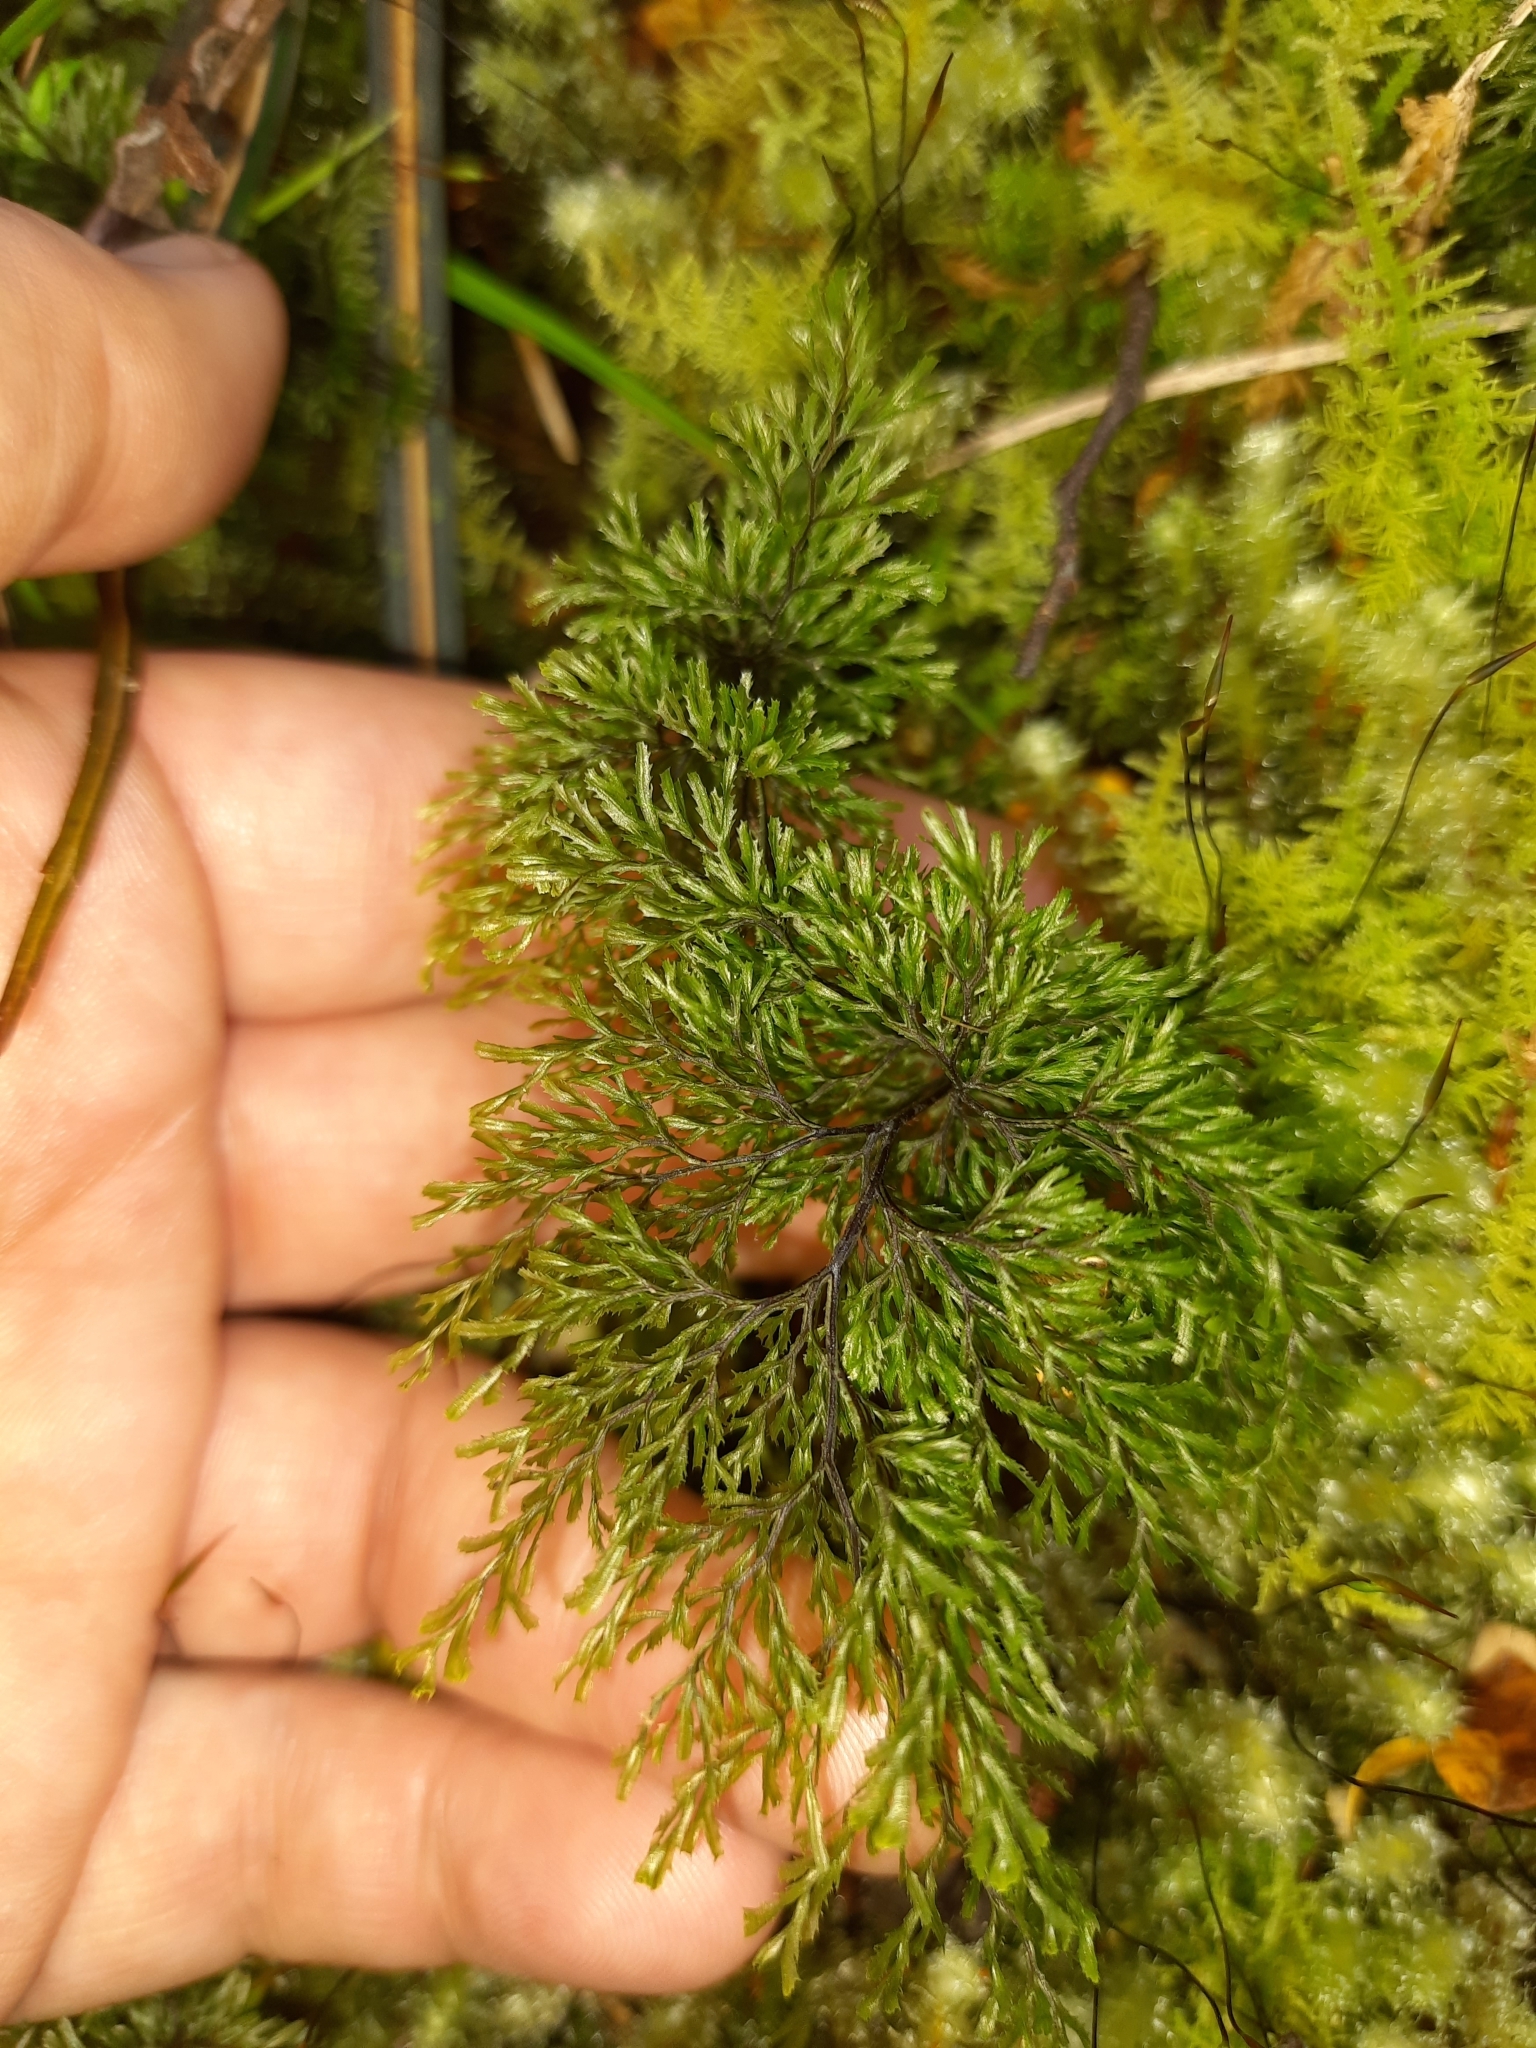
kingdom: Plantae
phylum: Tracheophyta
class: Polypodiopsida
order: Hymenophyllales
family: Hymenophyllaceae
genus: Hymenophyllum
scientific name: Hymenophyllum multifidum
